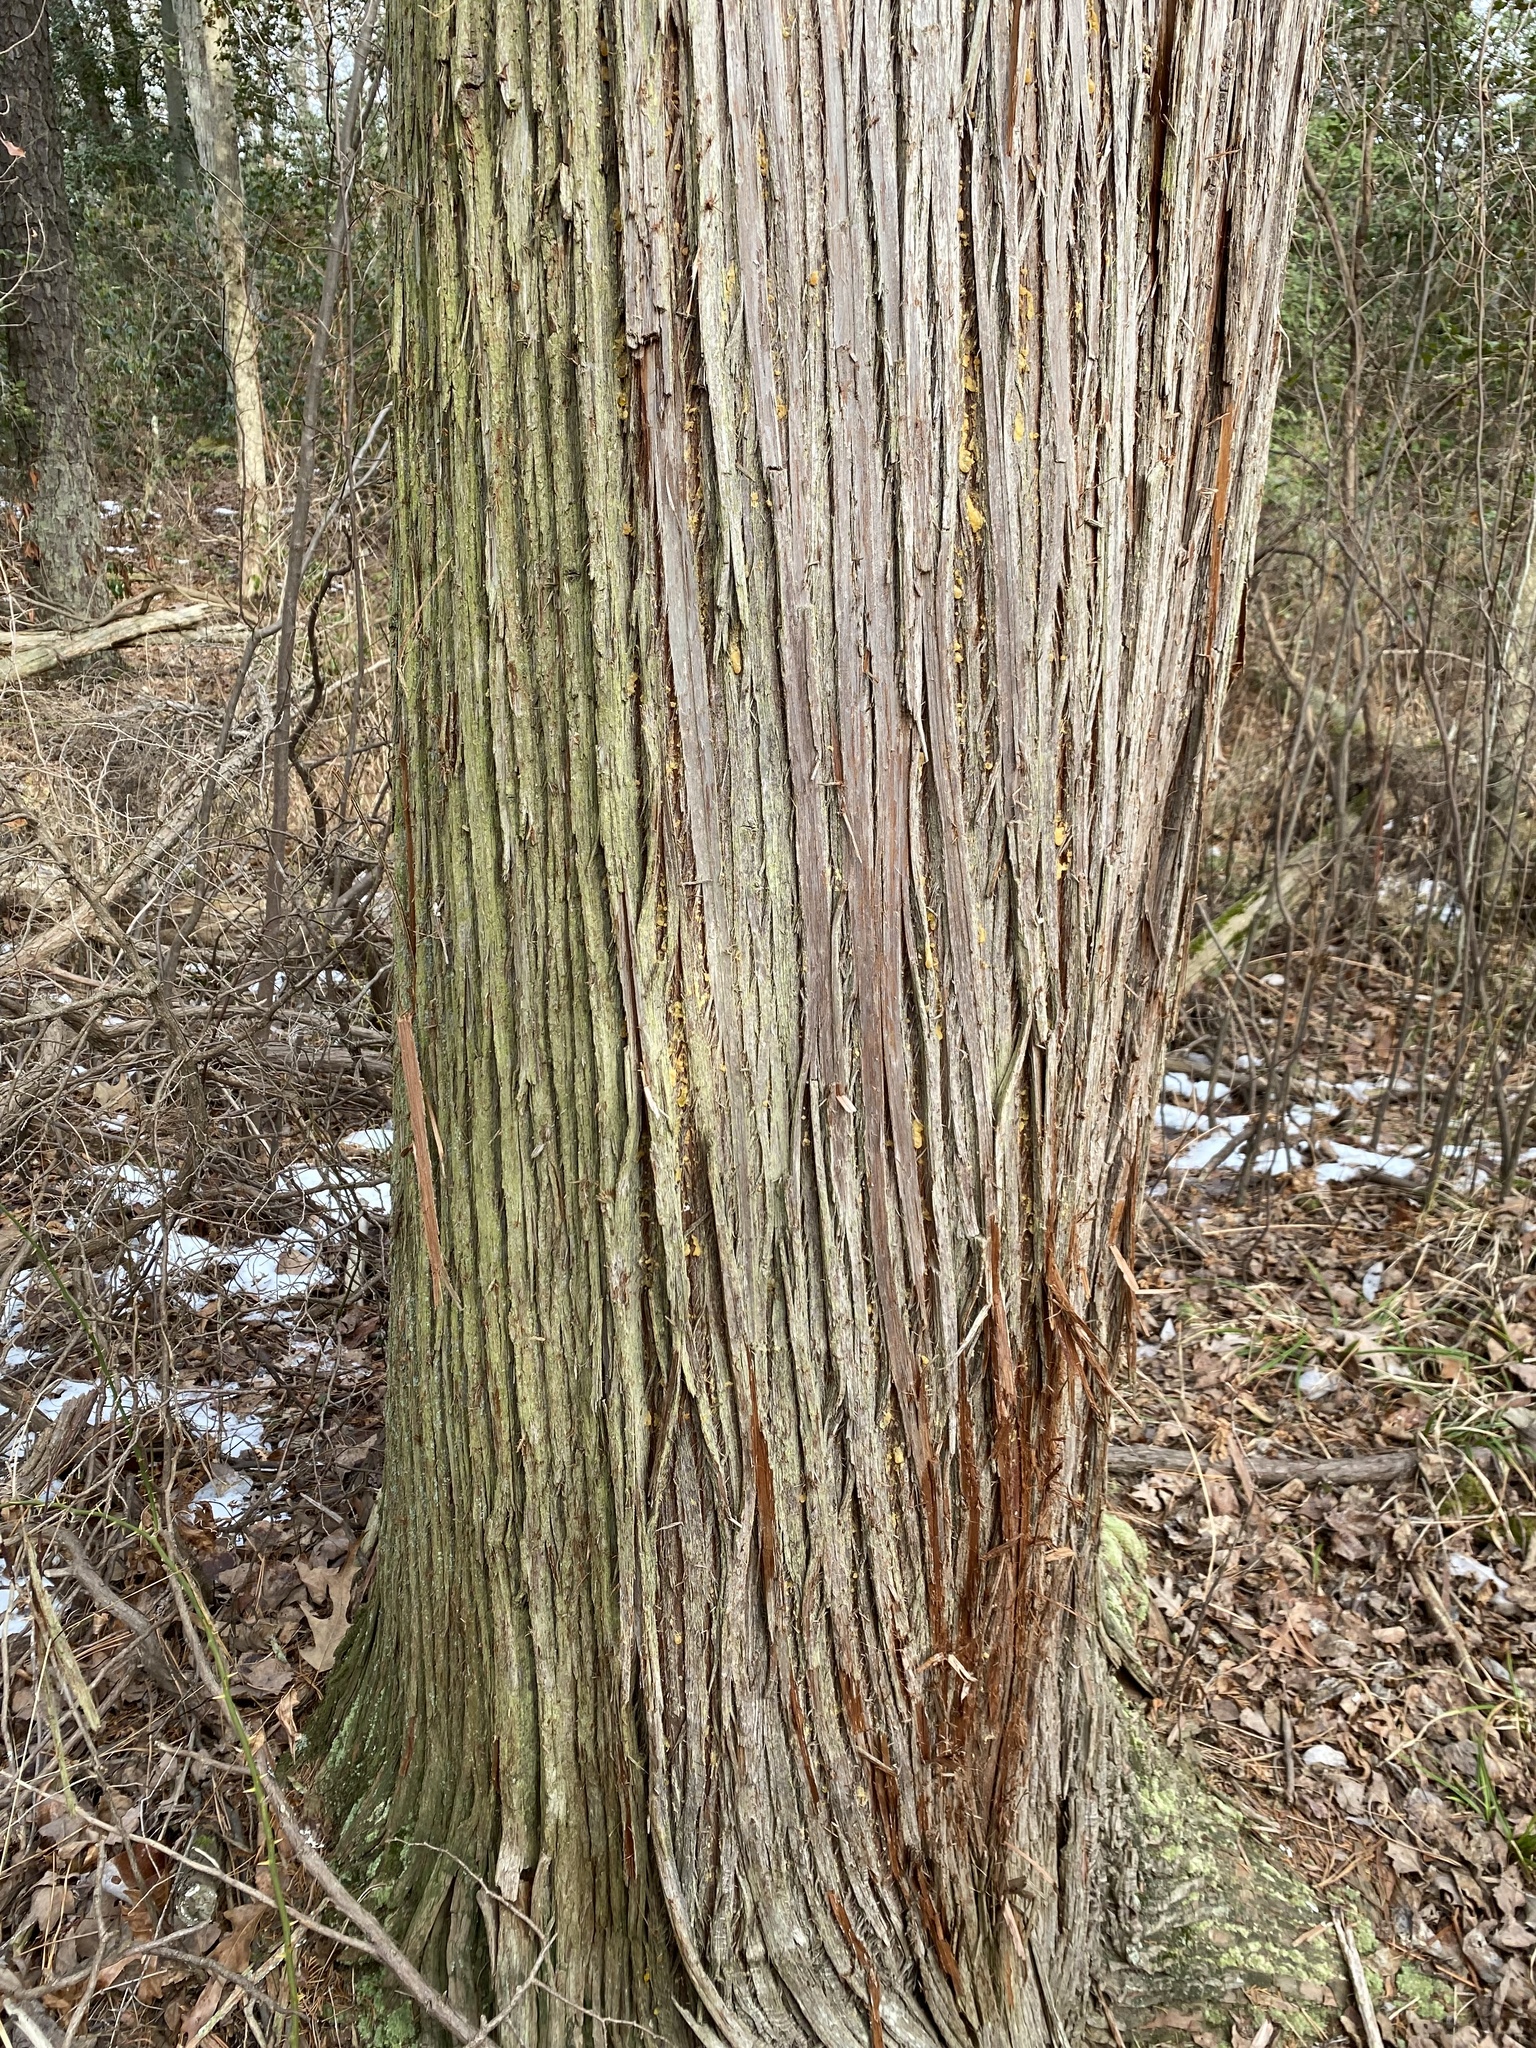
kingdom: Plantae
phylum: Tracheophyta
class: Pinopsida
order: Pinales
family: Cupressaceae
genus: Chamaecyparis
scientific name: Chamaecyparis thyoides
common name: Atlantic white cedar
